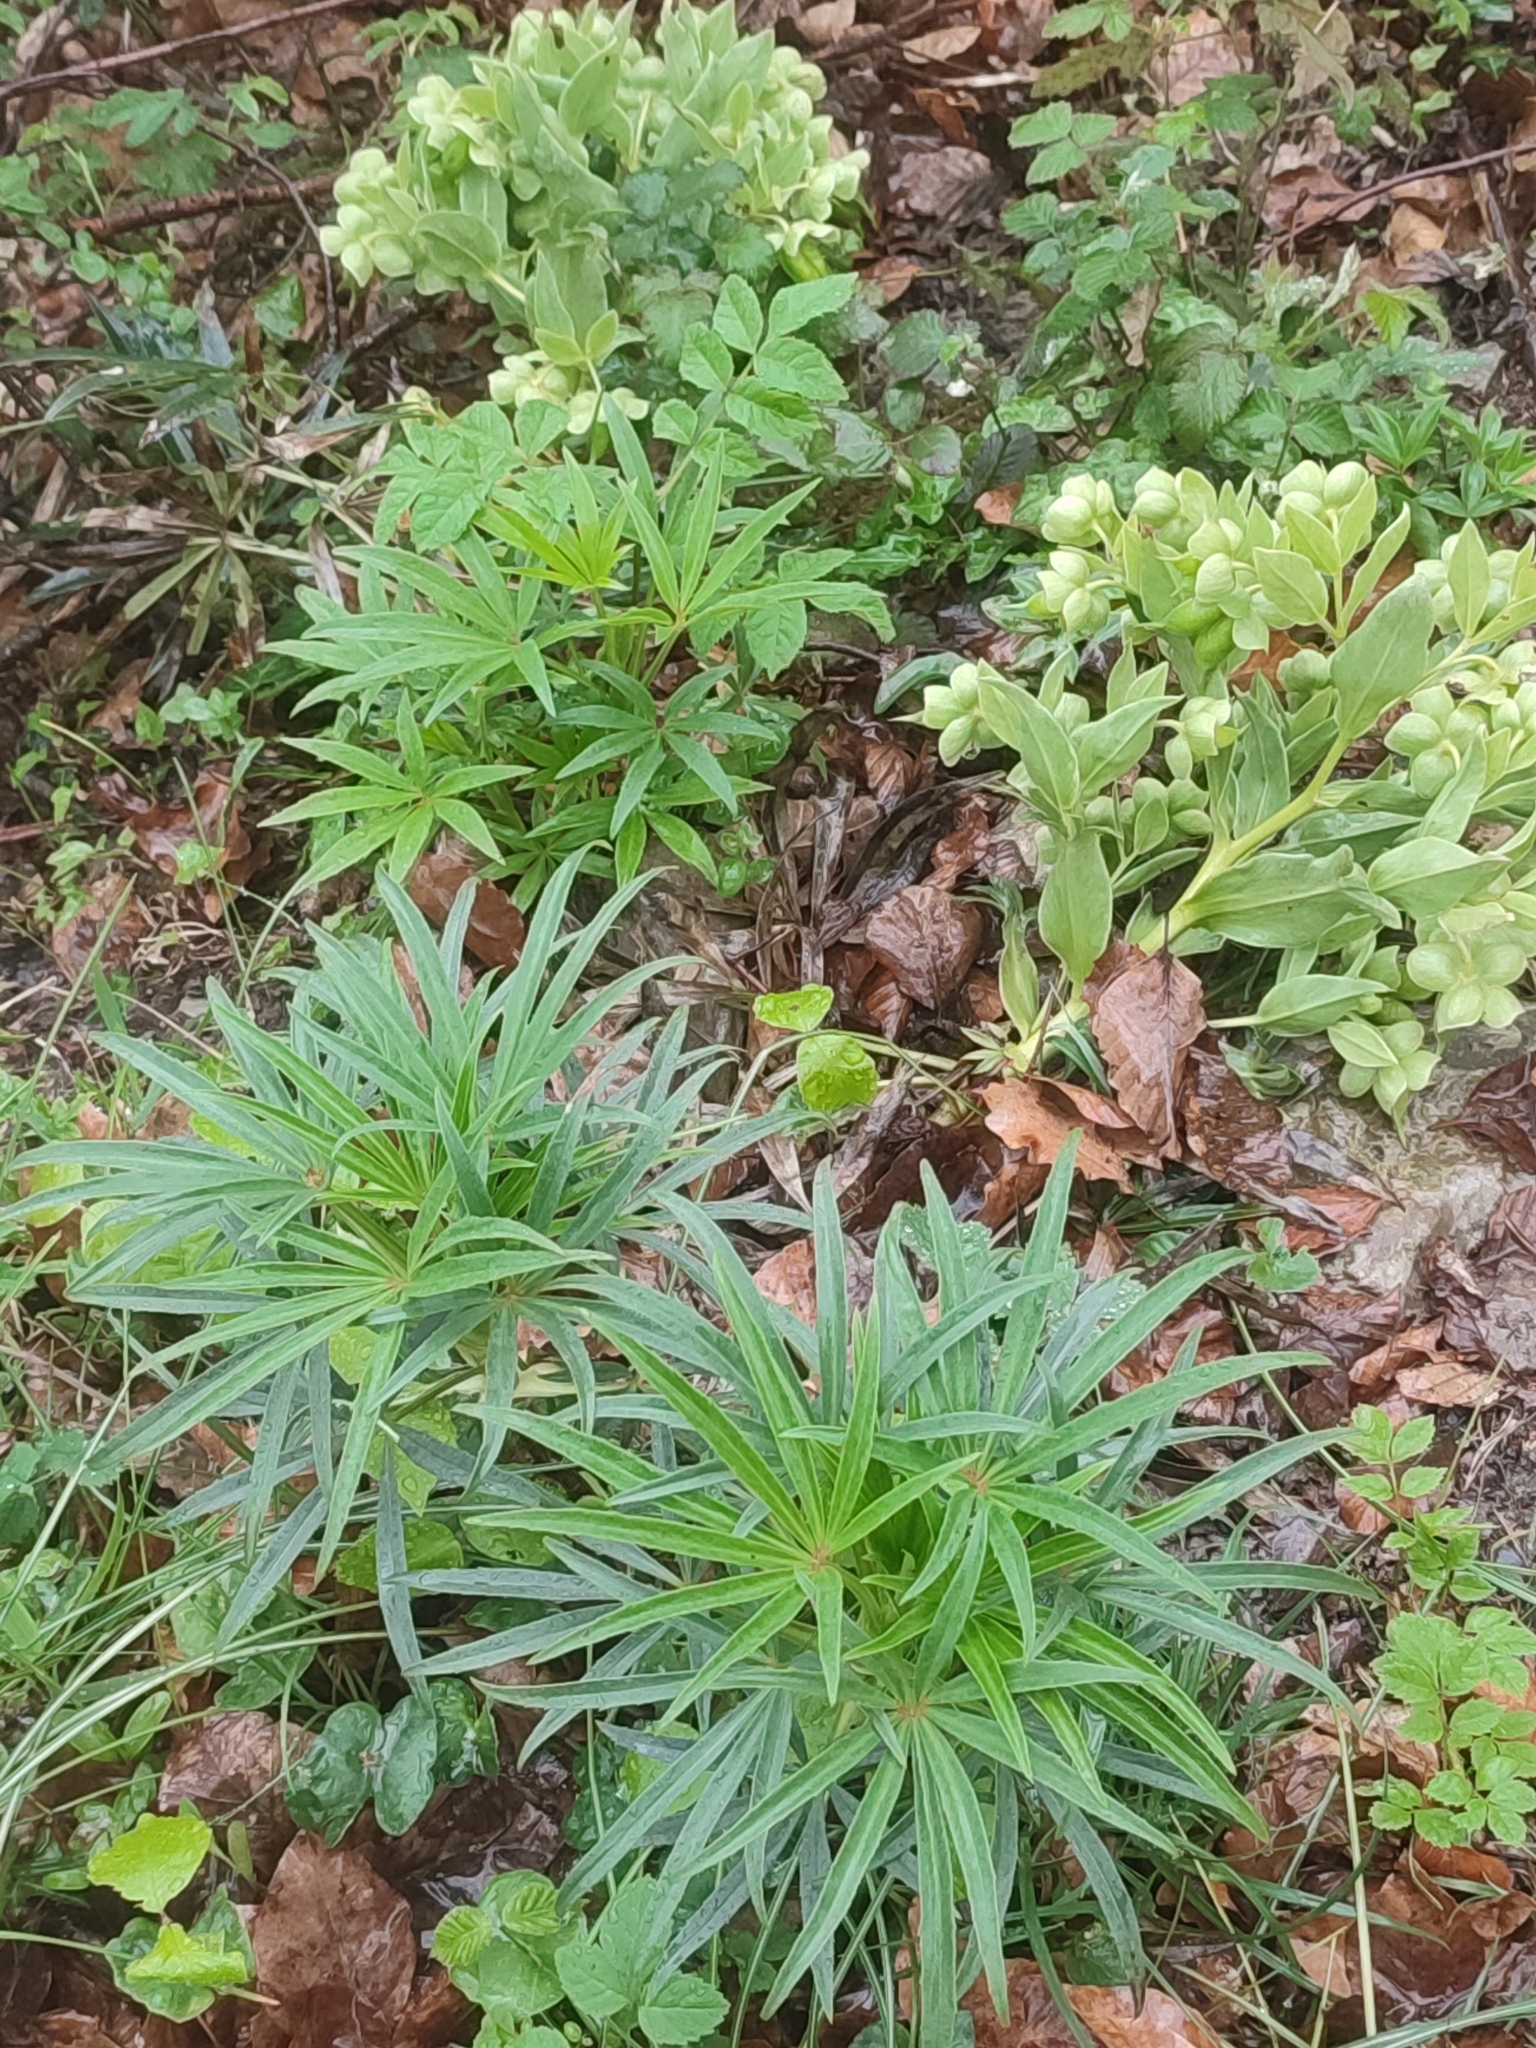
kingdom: Plantae
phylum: Tracheophyta
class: Magnoliopsida
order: Ranunculales
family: Ranunculaceae
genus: Helleborus
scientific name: Helleborus foetidus
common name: Stinking hellebore
